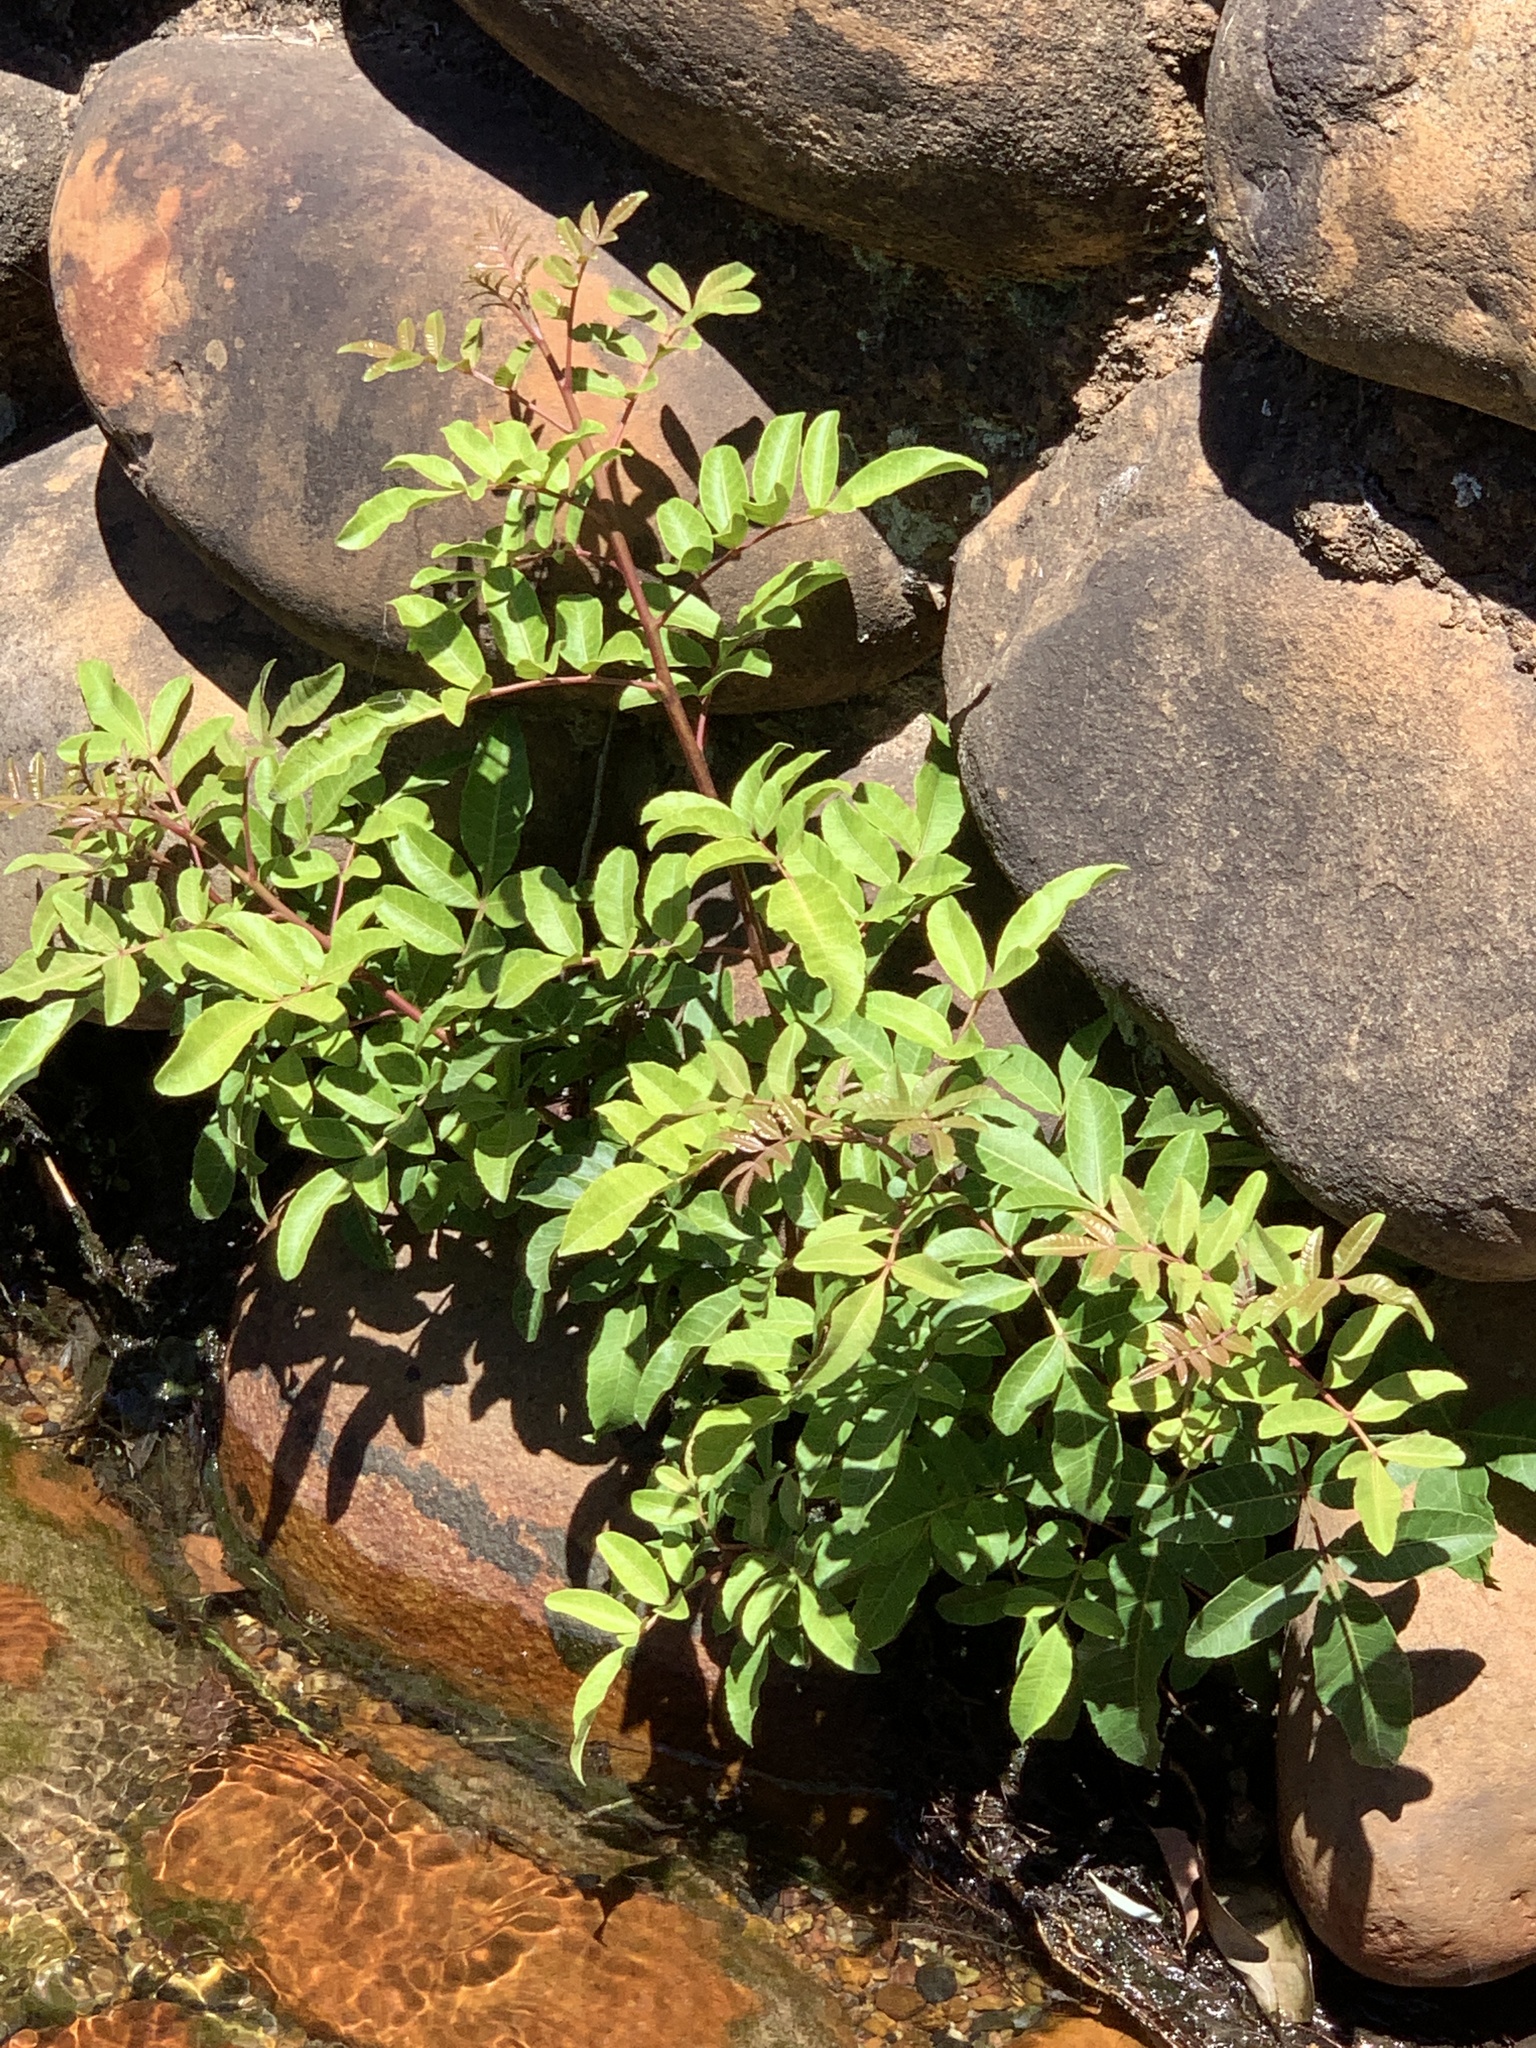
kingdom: Plantae
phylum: Tracheophyta
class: Magnoliopsida
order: Sapindales
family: Anacardiaceae
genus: Schinus
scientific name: Schinus terebinthifolia
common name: Brazilian peppertree
